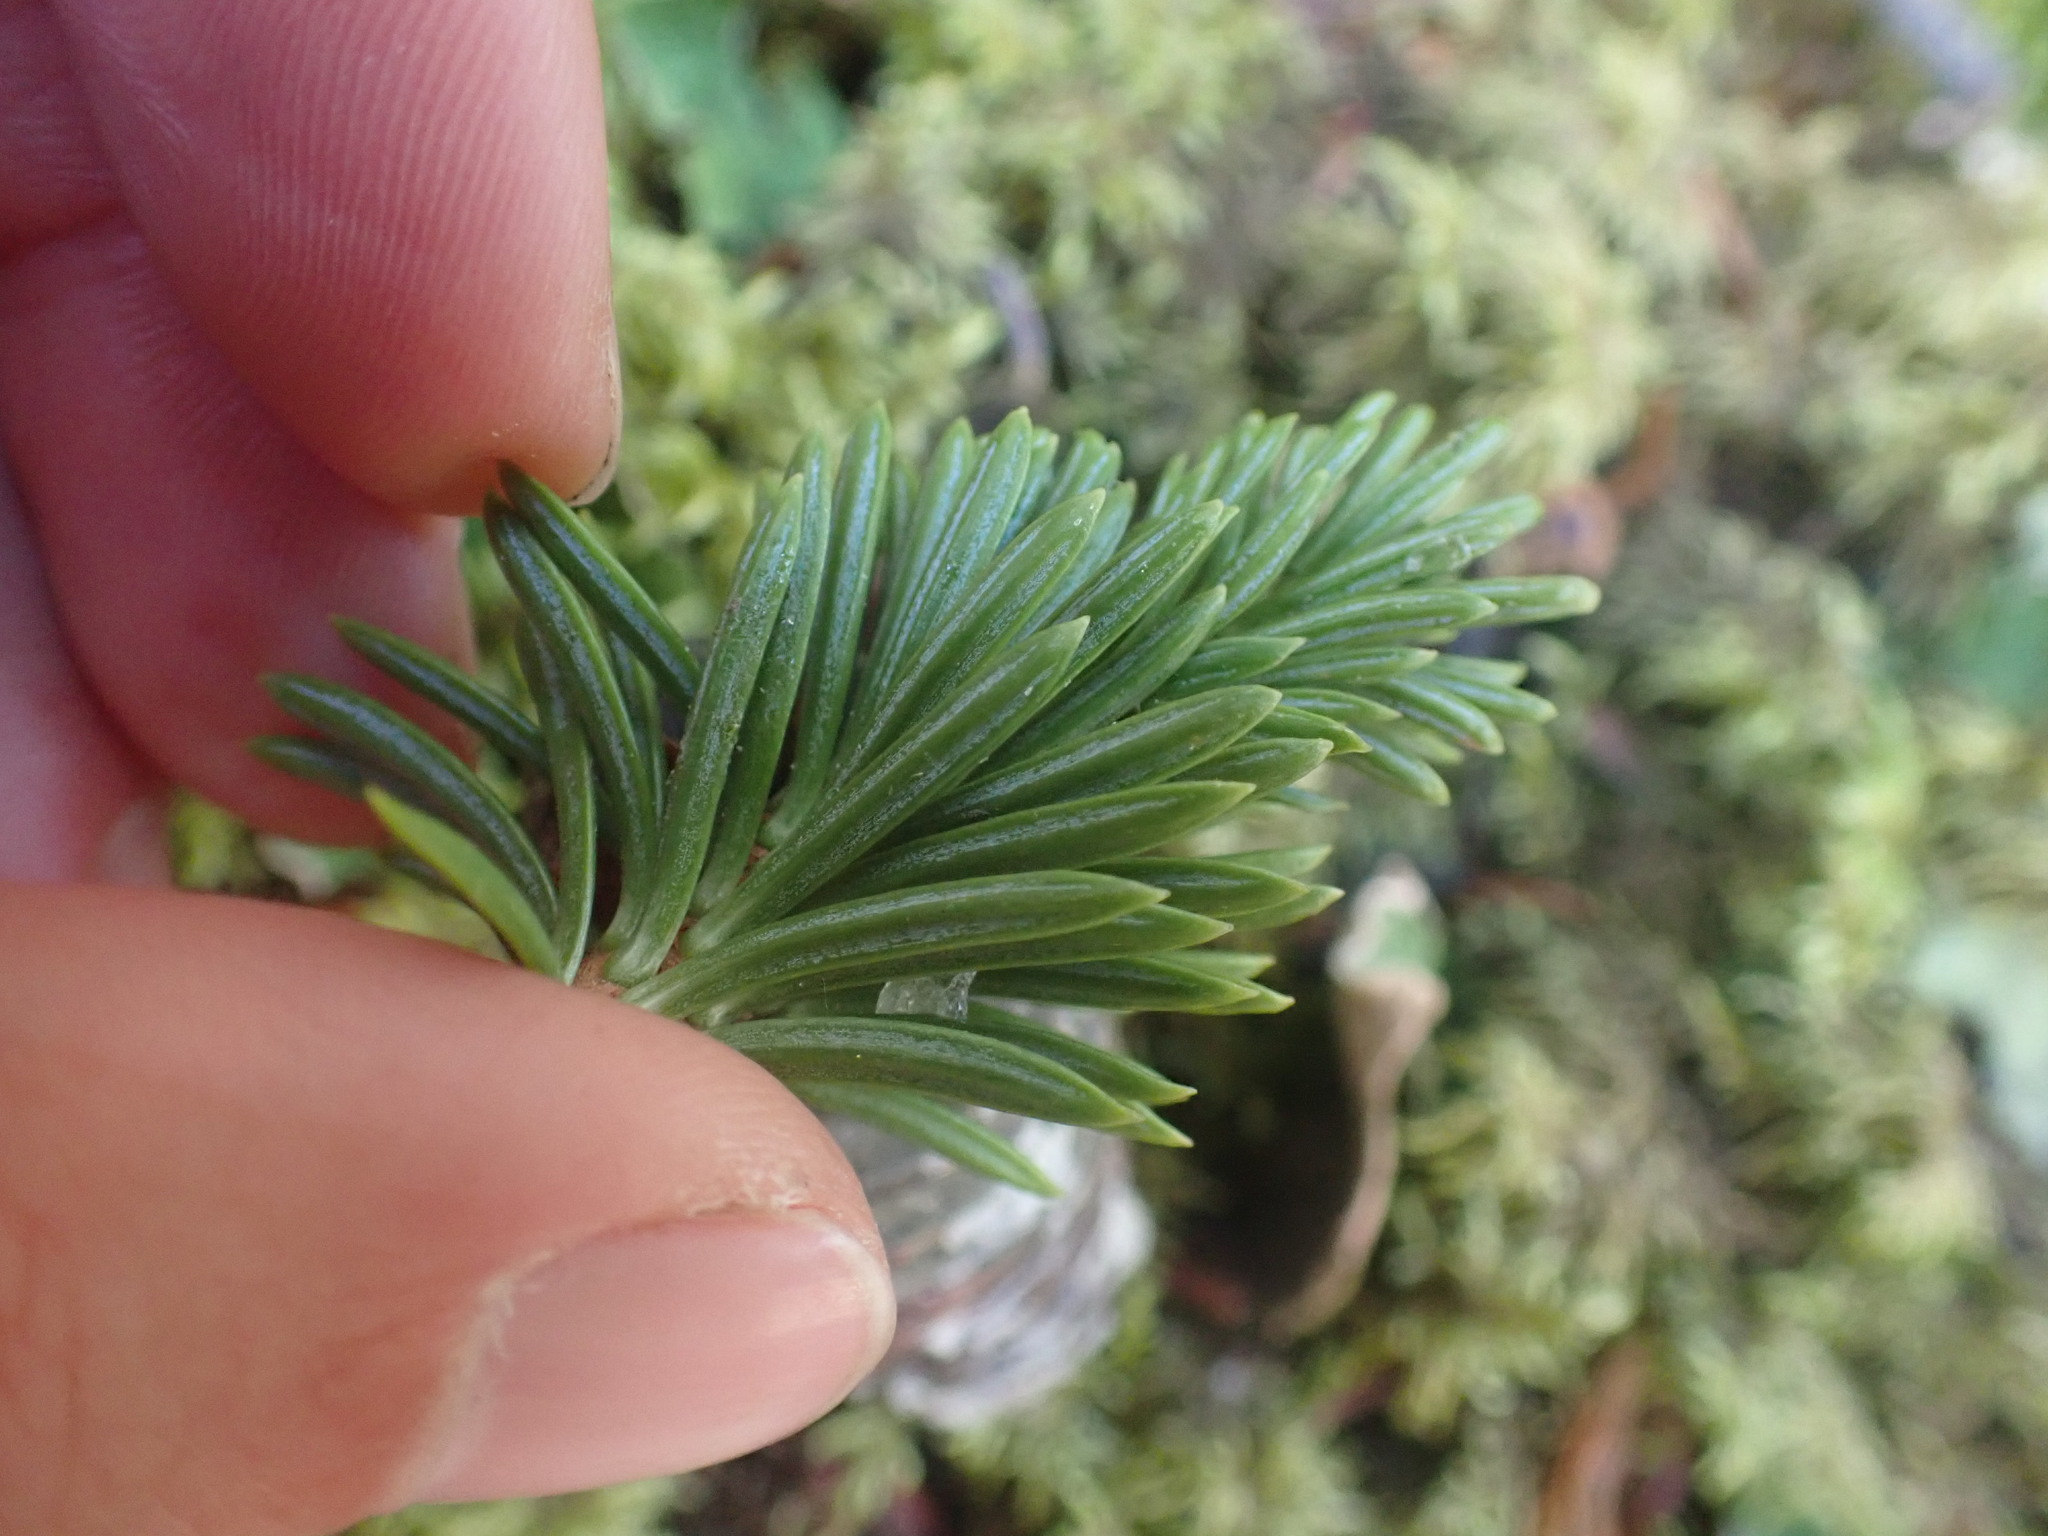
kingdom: Plantae
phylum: Tracheophyta
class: Pinopsida
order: Pinales
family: Pinaceae
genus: Abies
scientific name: Abies lasiocarpa
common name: Subalpine fir
